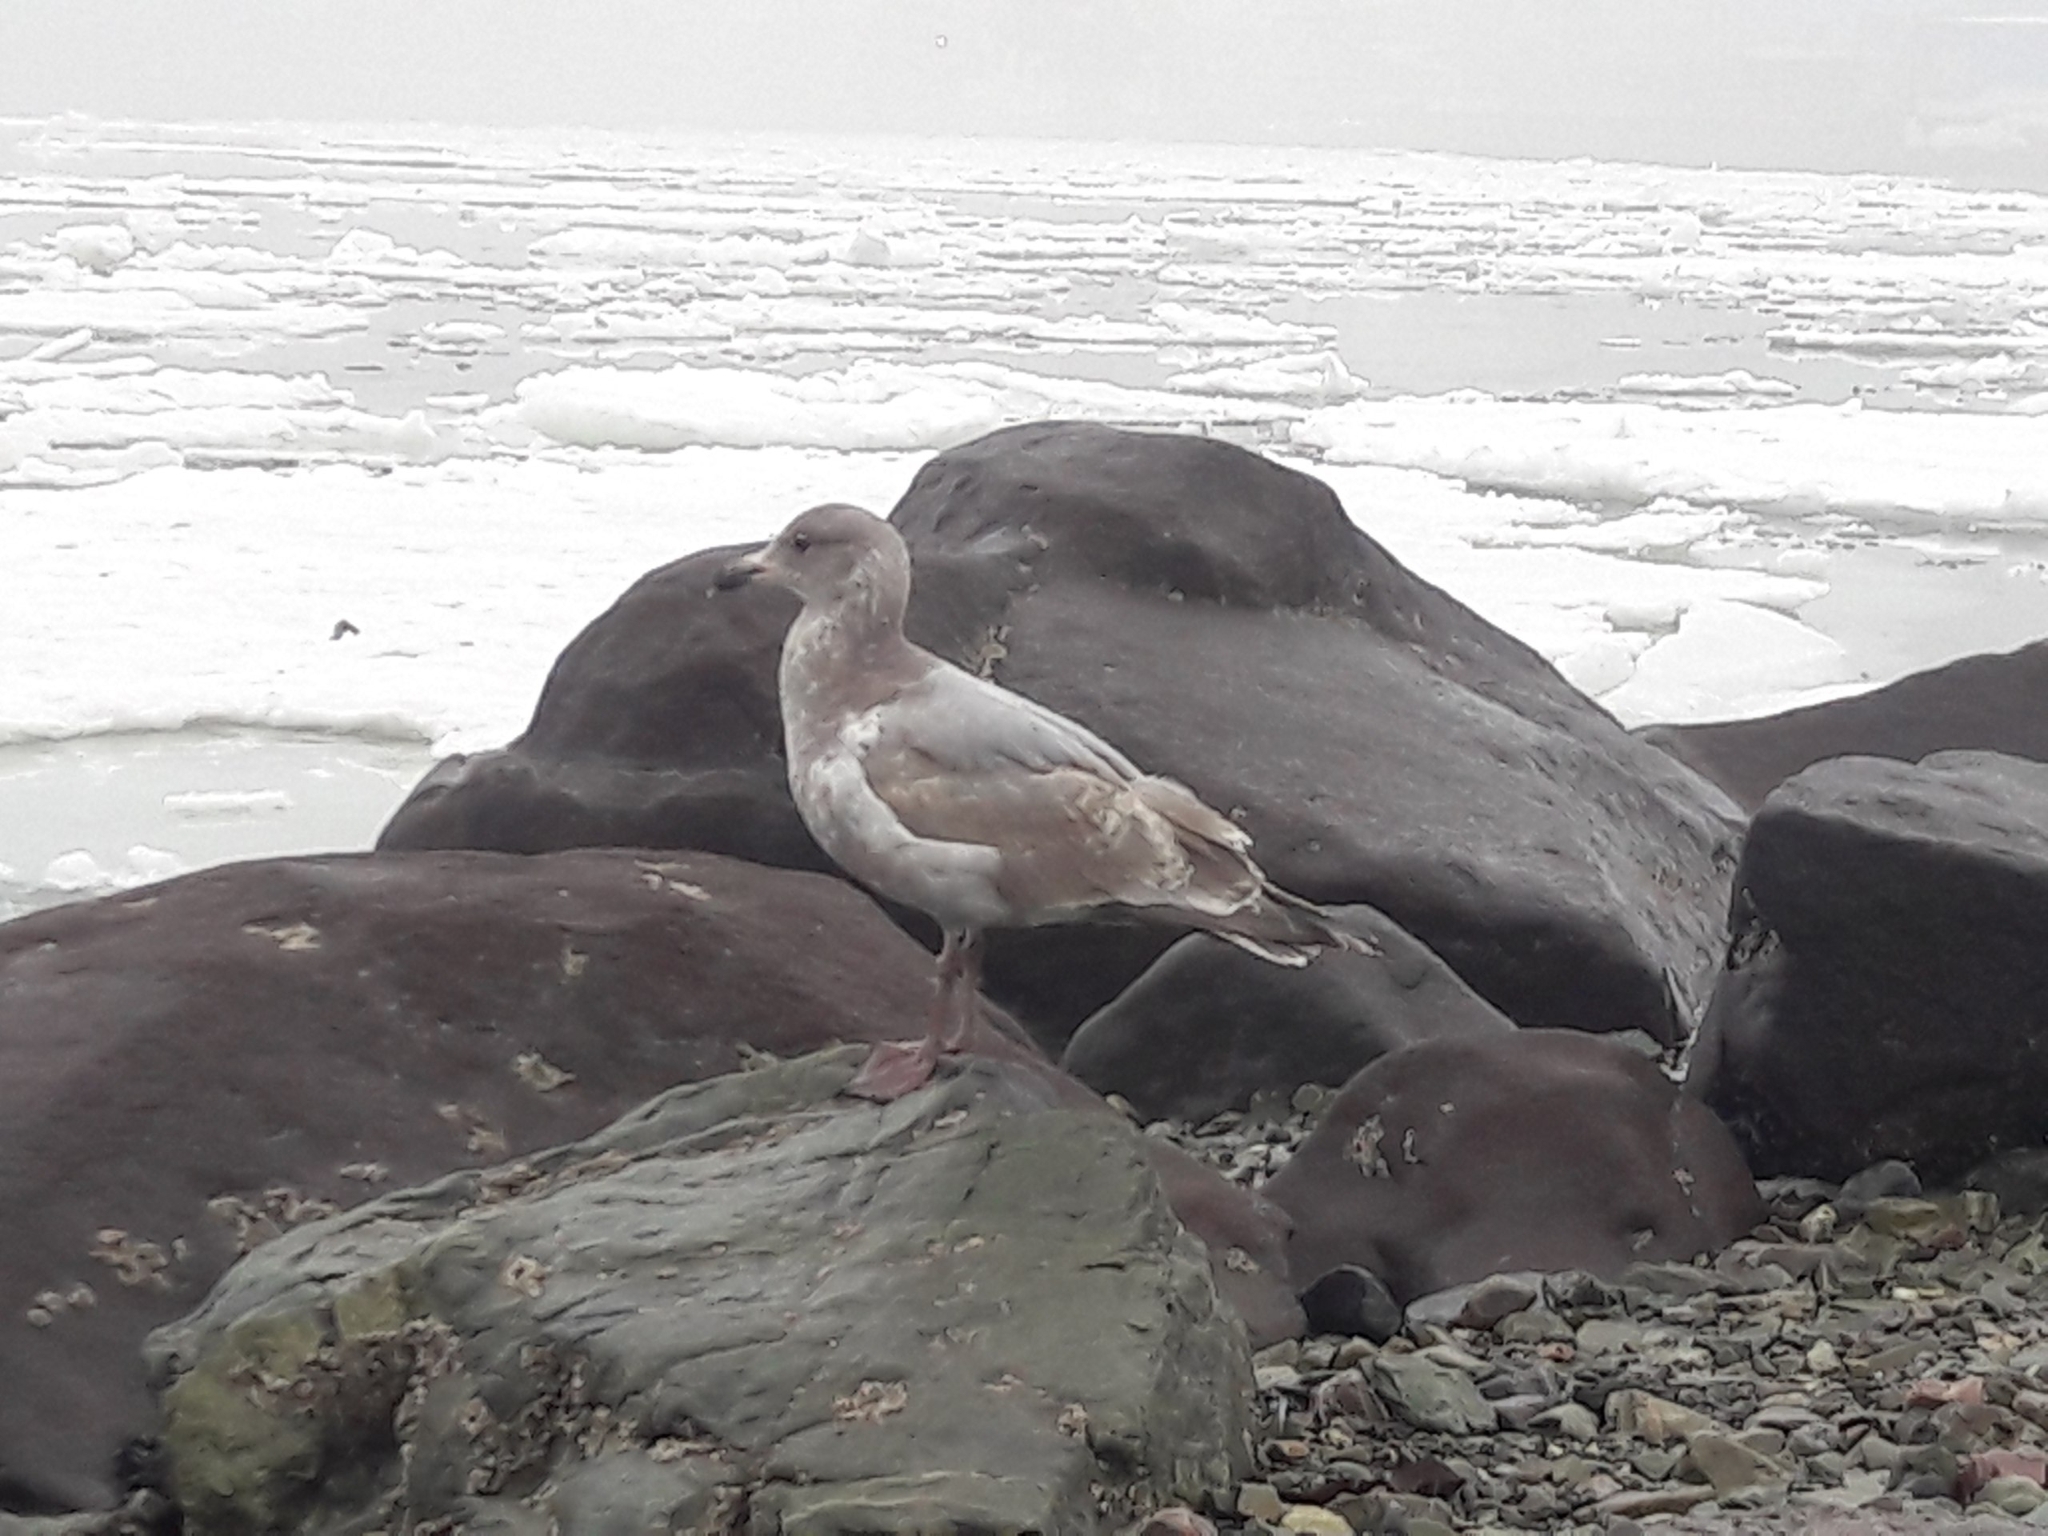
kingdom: Animalia
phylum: Chordata
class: Aves
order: Charadriiformes
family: Laridae
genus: Larus
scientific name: Larus glaucescens
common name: Glaucous-winged gull
